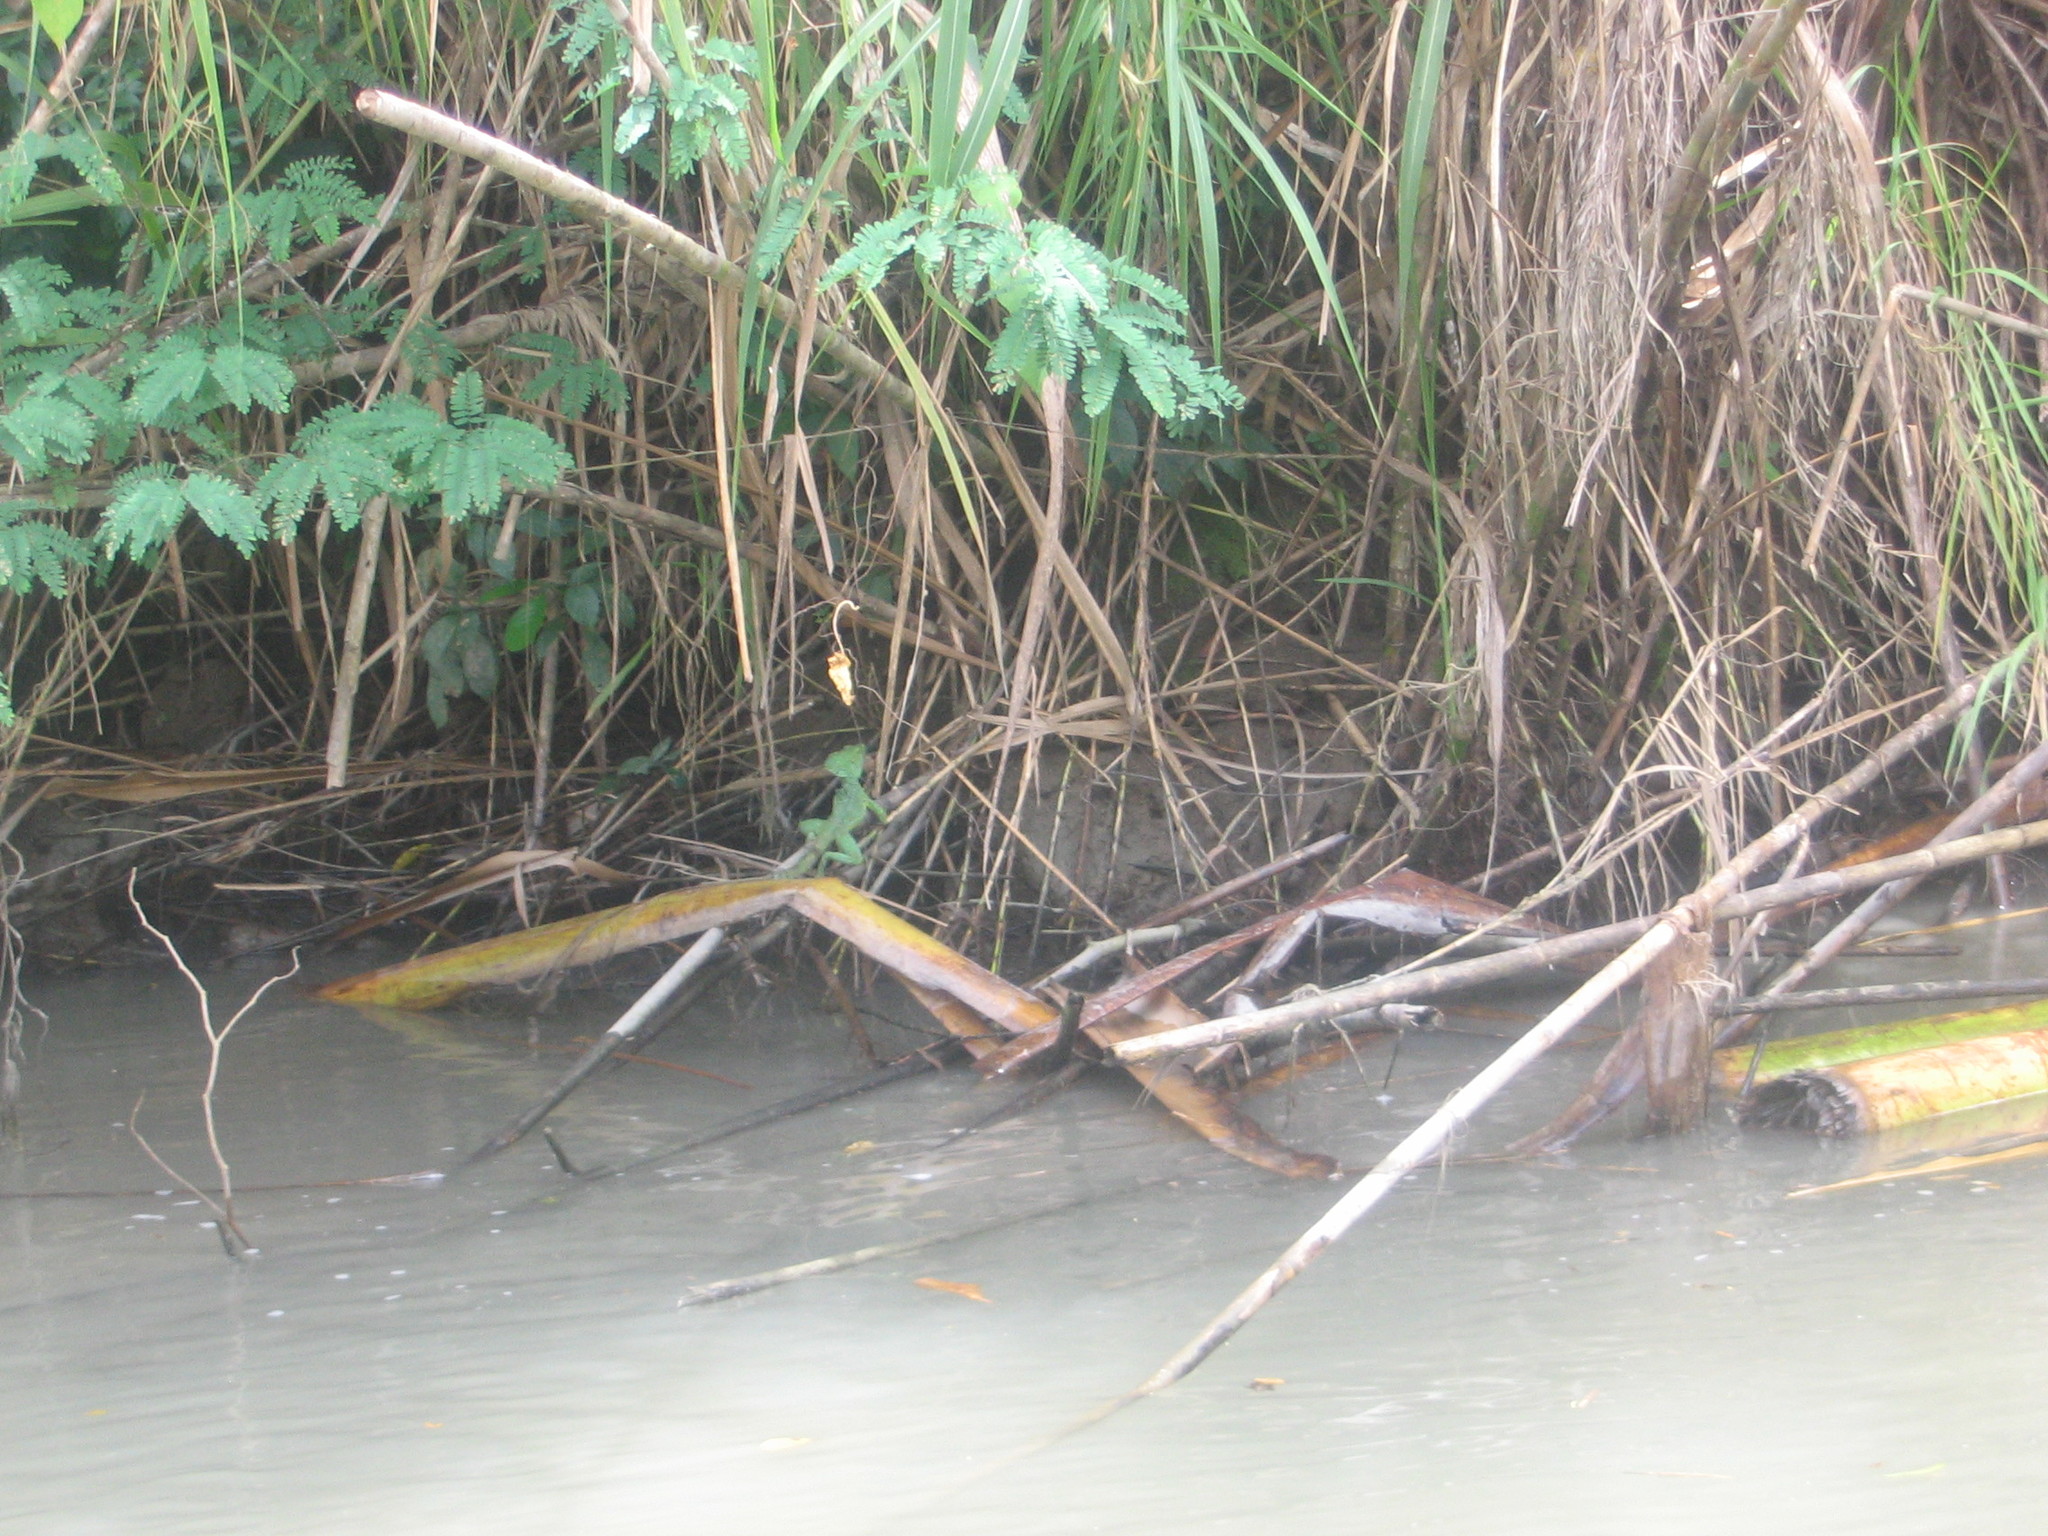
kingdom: Animalia
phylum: Chordata
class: Squamata
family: Corytophanidae
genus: Basiliscus
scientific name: Basiliscus plumifrons
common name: Green basilisk
